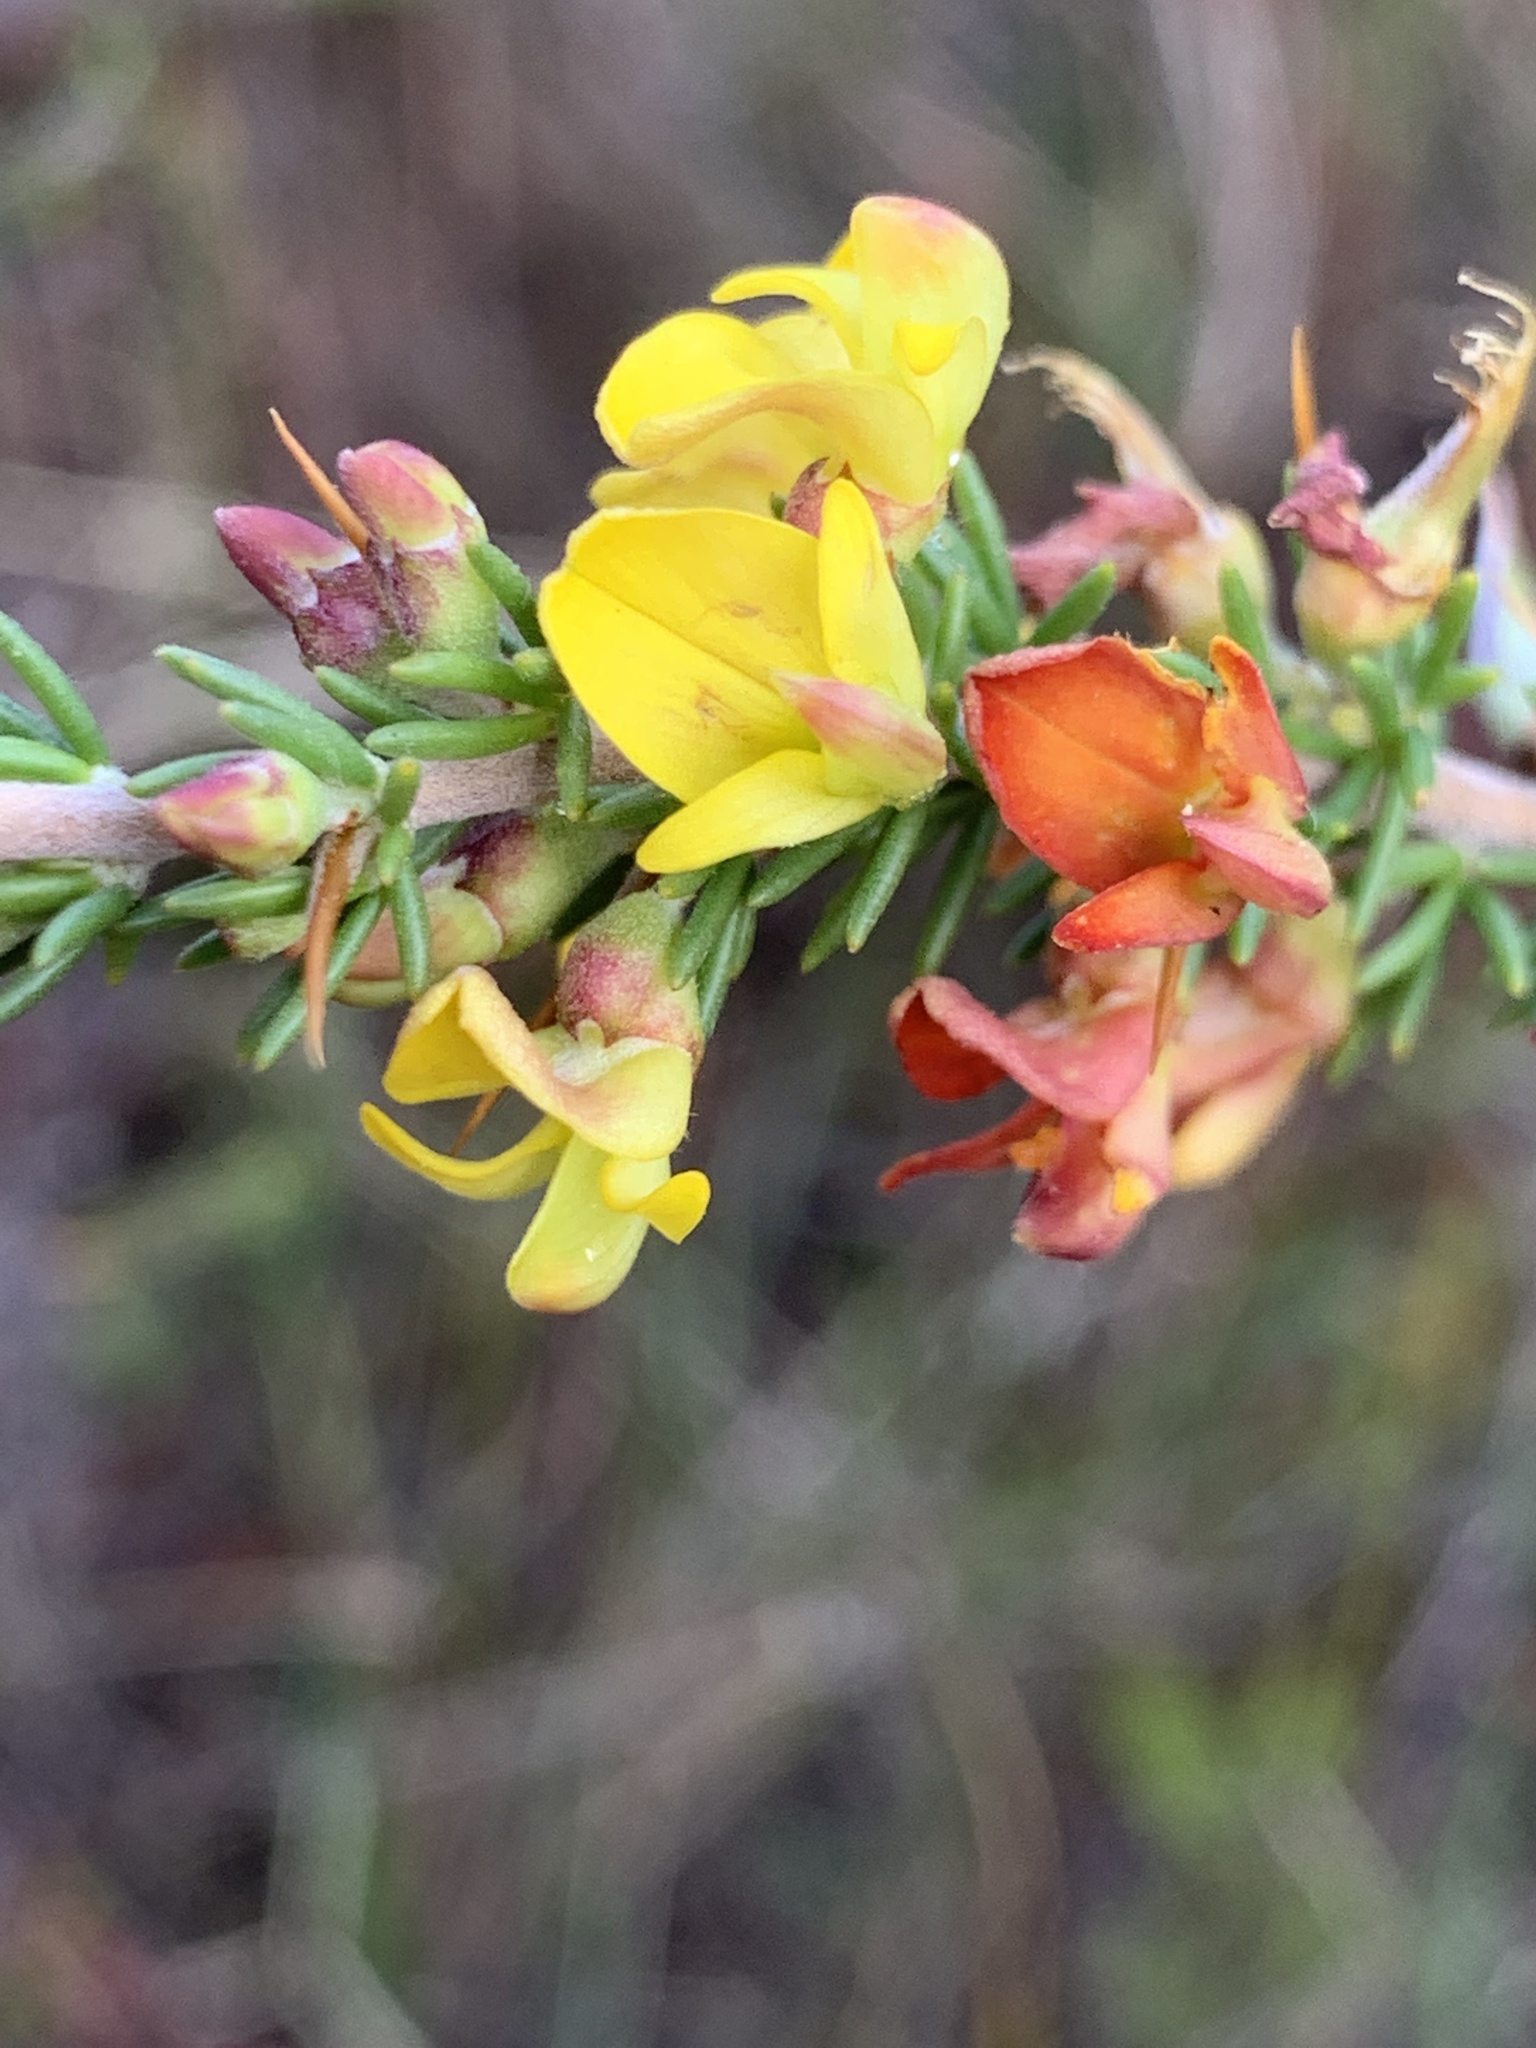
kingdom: Plantae
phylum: Tracheophyta
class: Magnoliopsida
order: Fabales
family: Fabaceae
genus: Aspalathus
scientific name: Aspalathus acuminata
